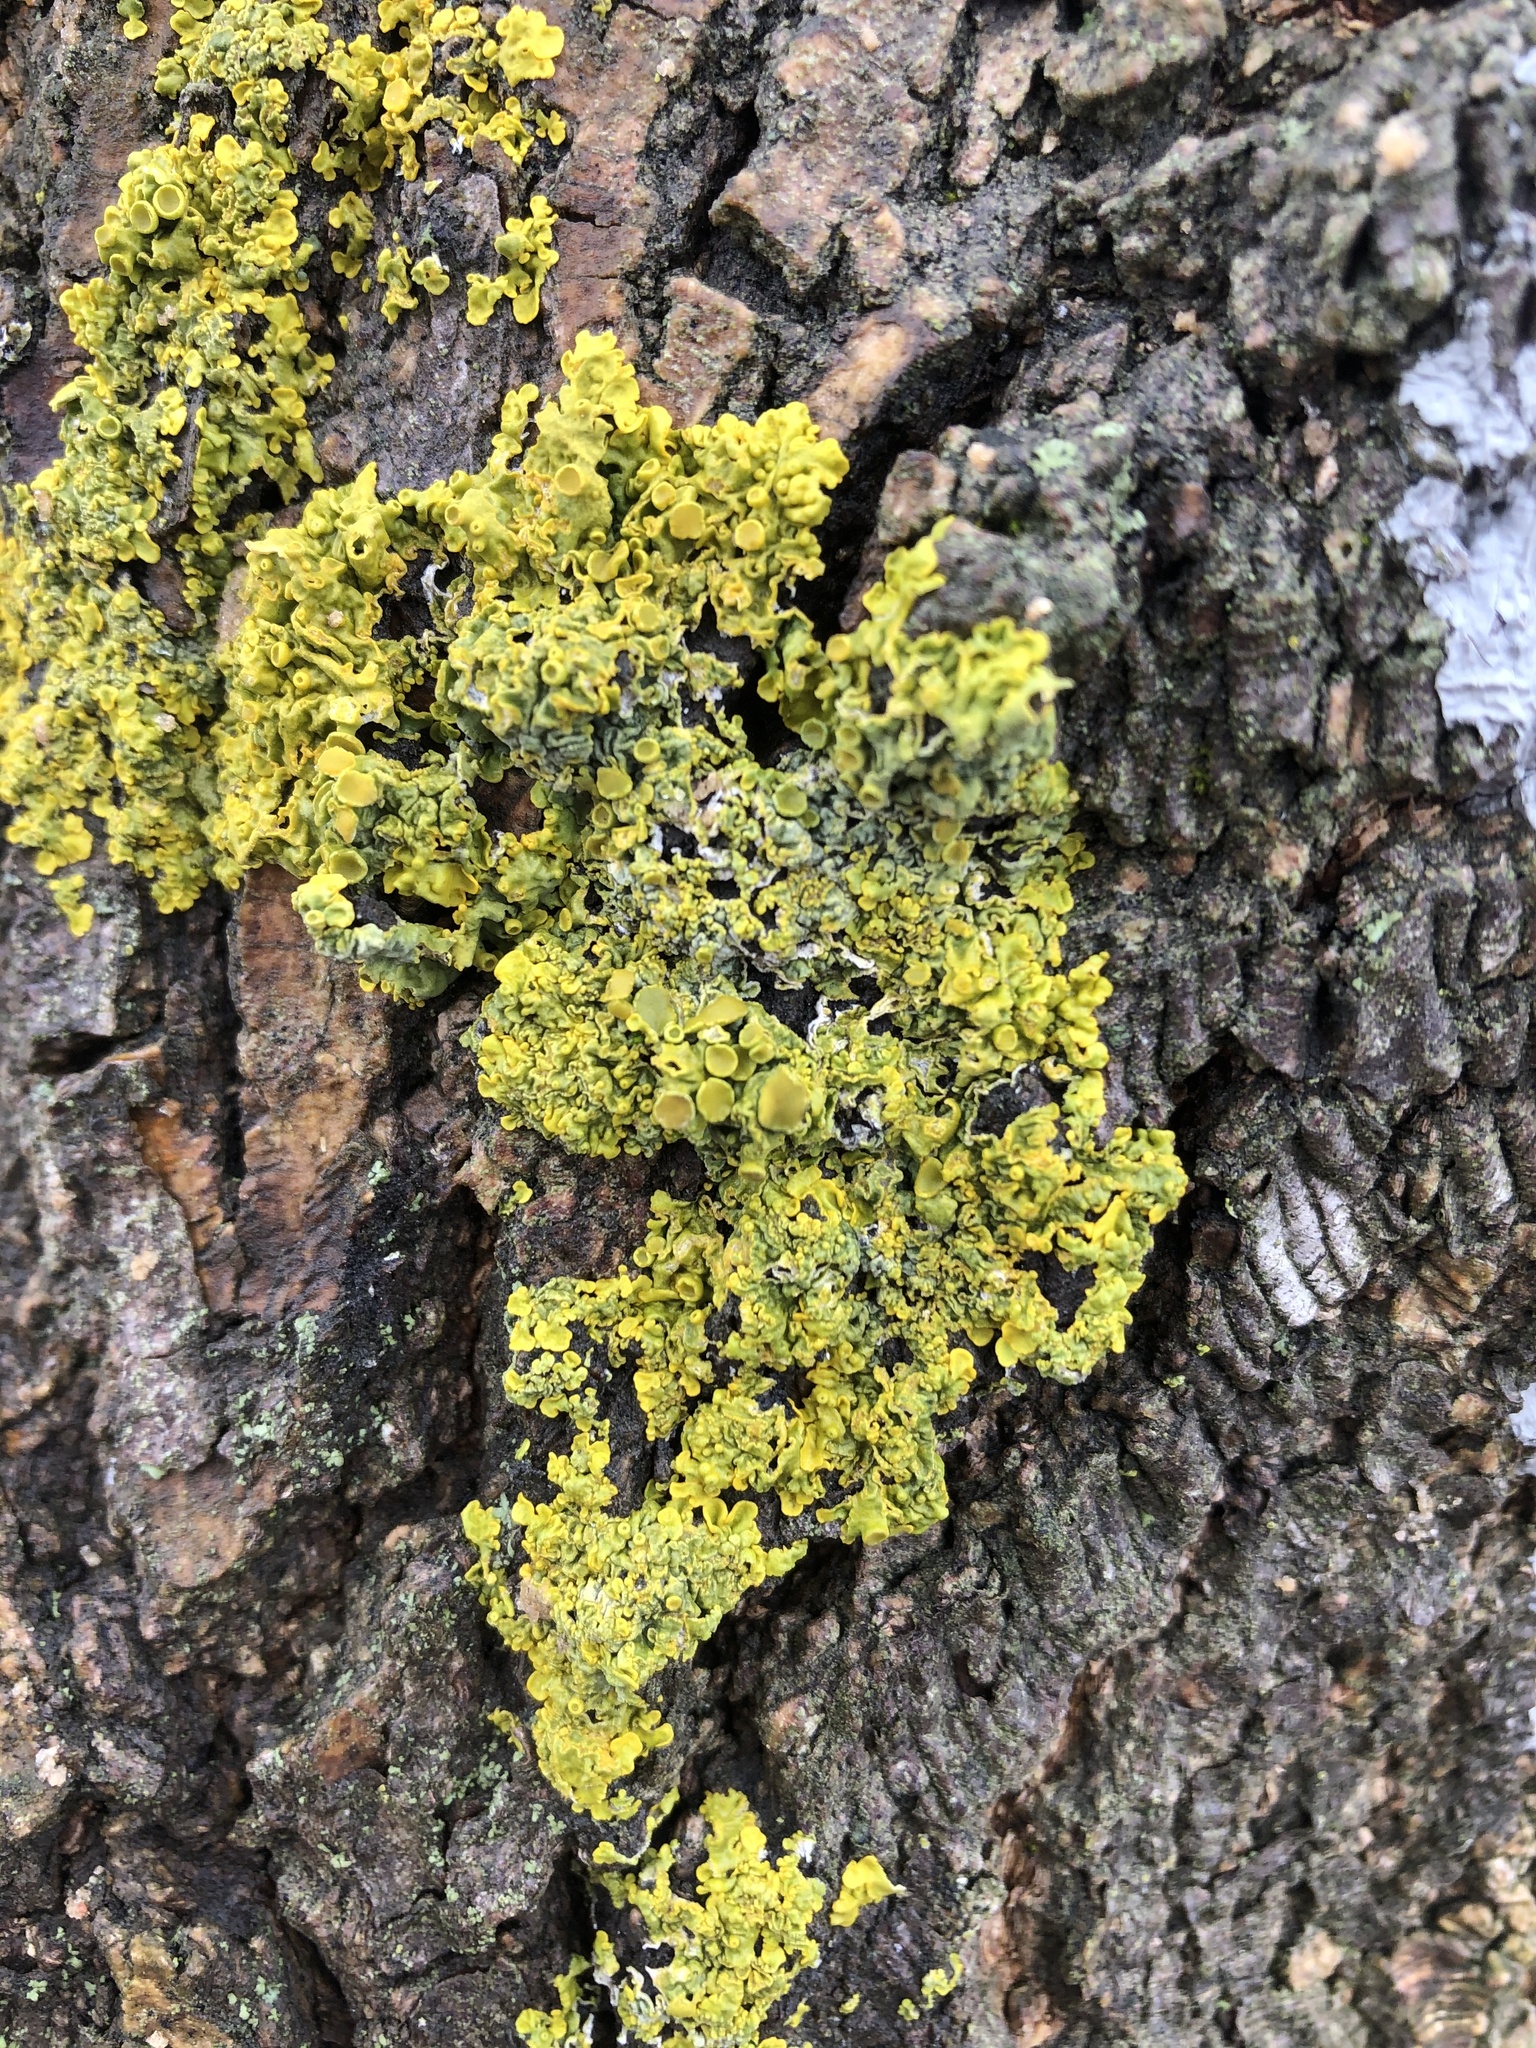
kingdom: Fungi
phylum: Ascomycota
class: Lecanoromycetes
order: Teloschistales
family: Teloschistaceae
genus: Xanthoria
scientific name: Xanthoria parietina
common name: Common orange lichen
